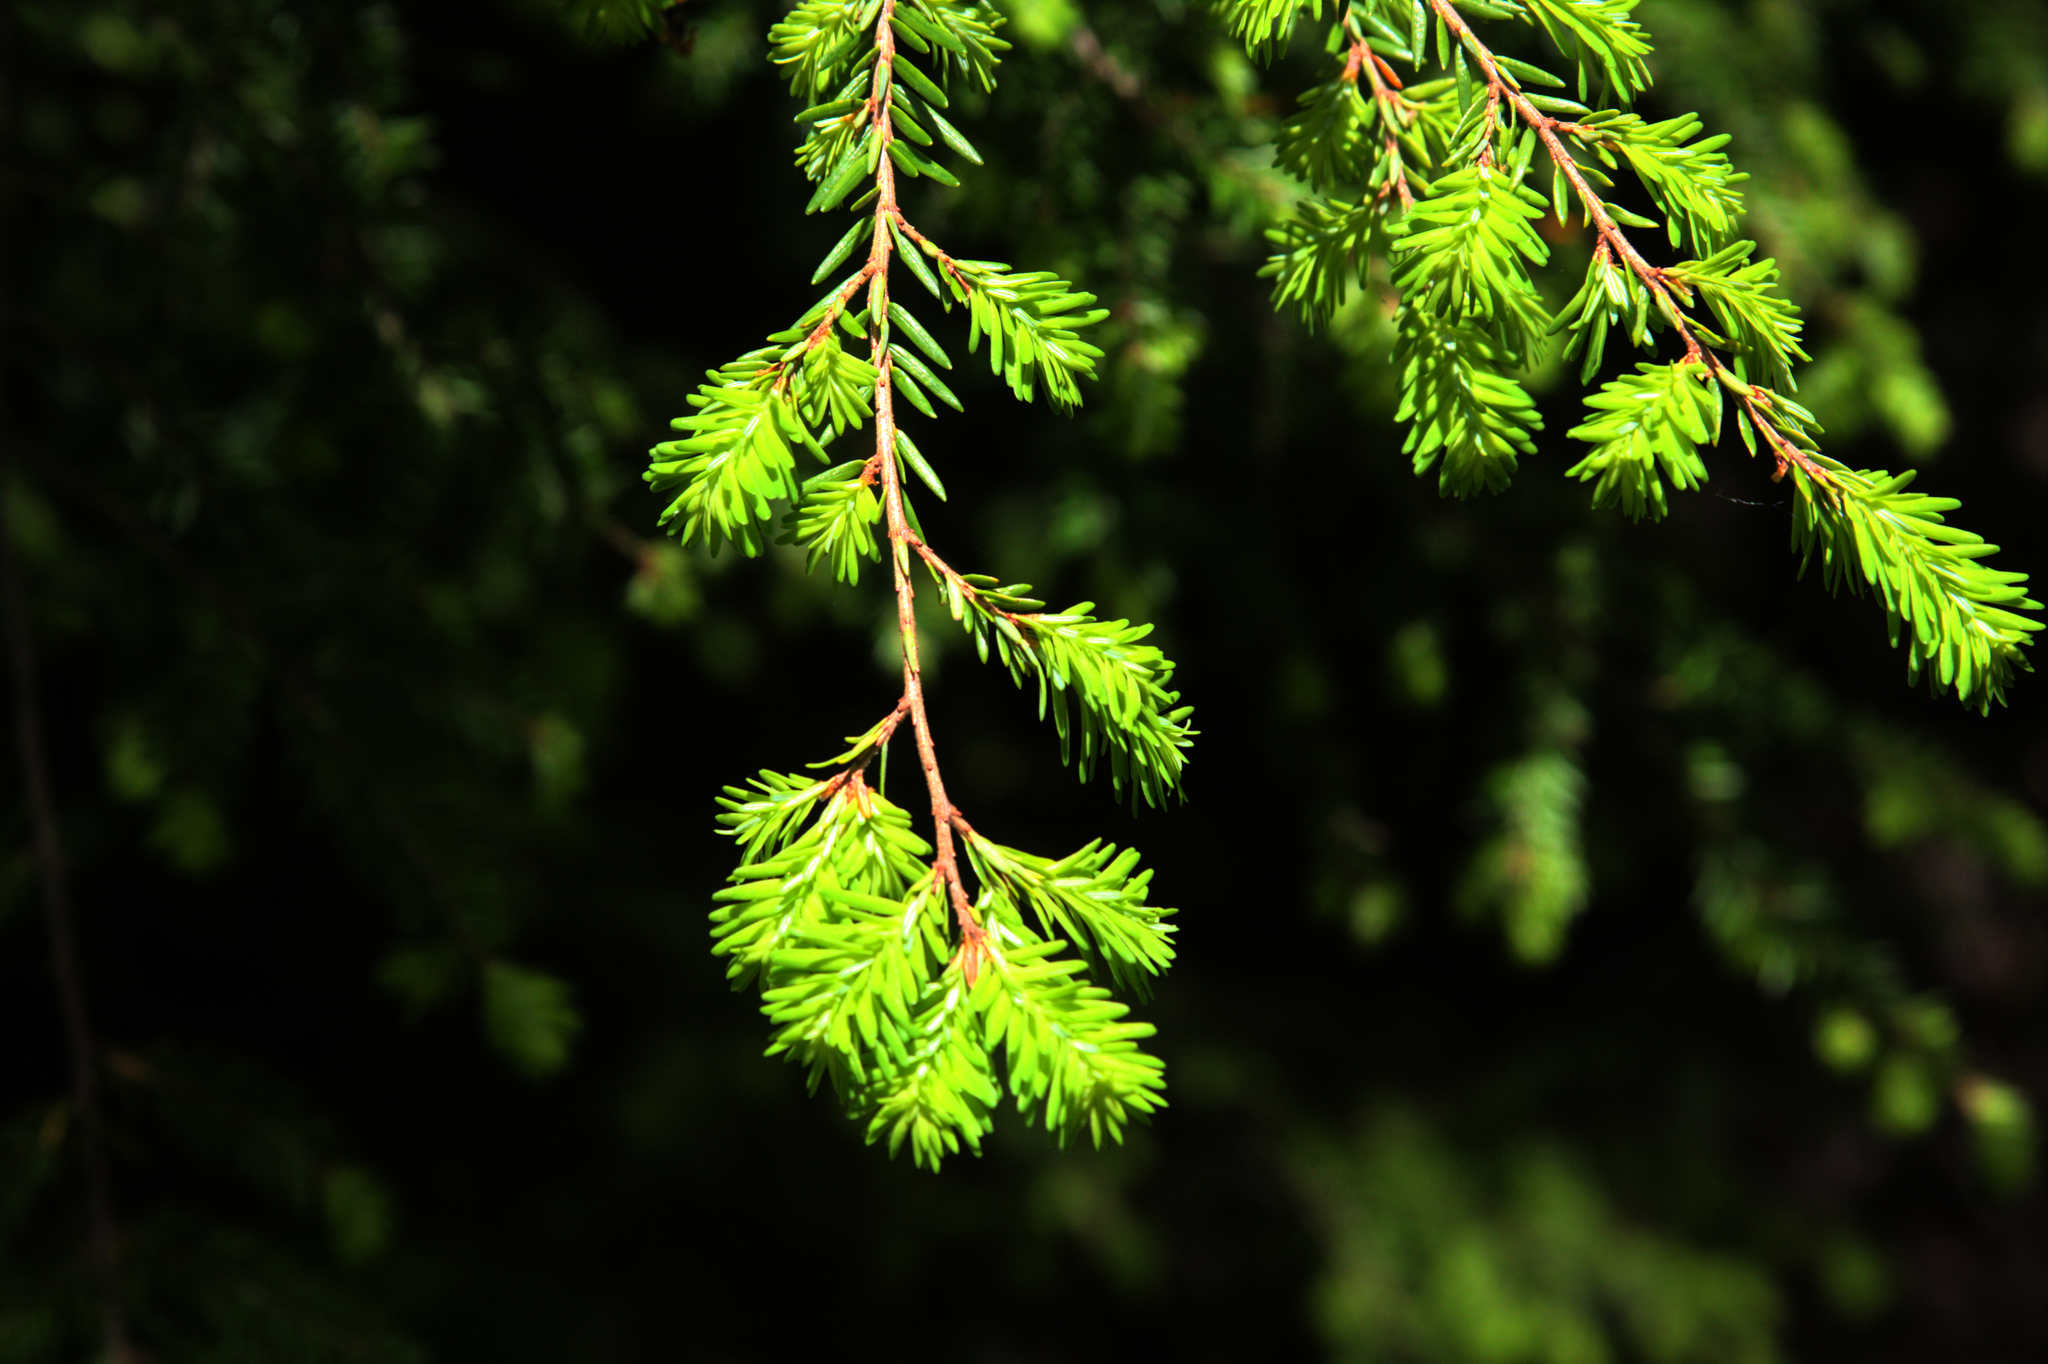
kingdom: Plantae
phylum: Tracheophyta
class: Pinopsida
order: Pinales
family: Pinaceae
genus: Tsuga
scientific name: Tsuga canadensis
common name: Eastern hemlock
